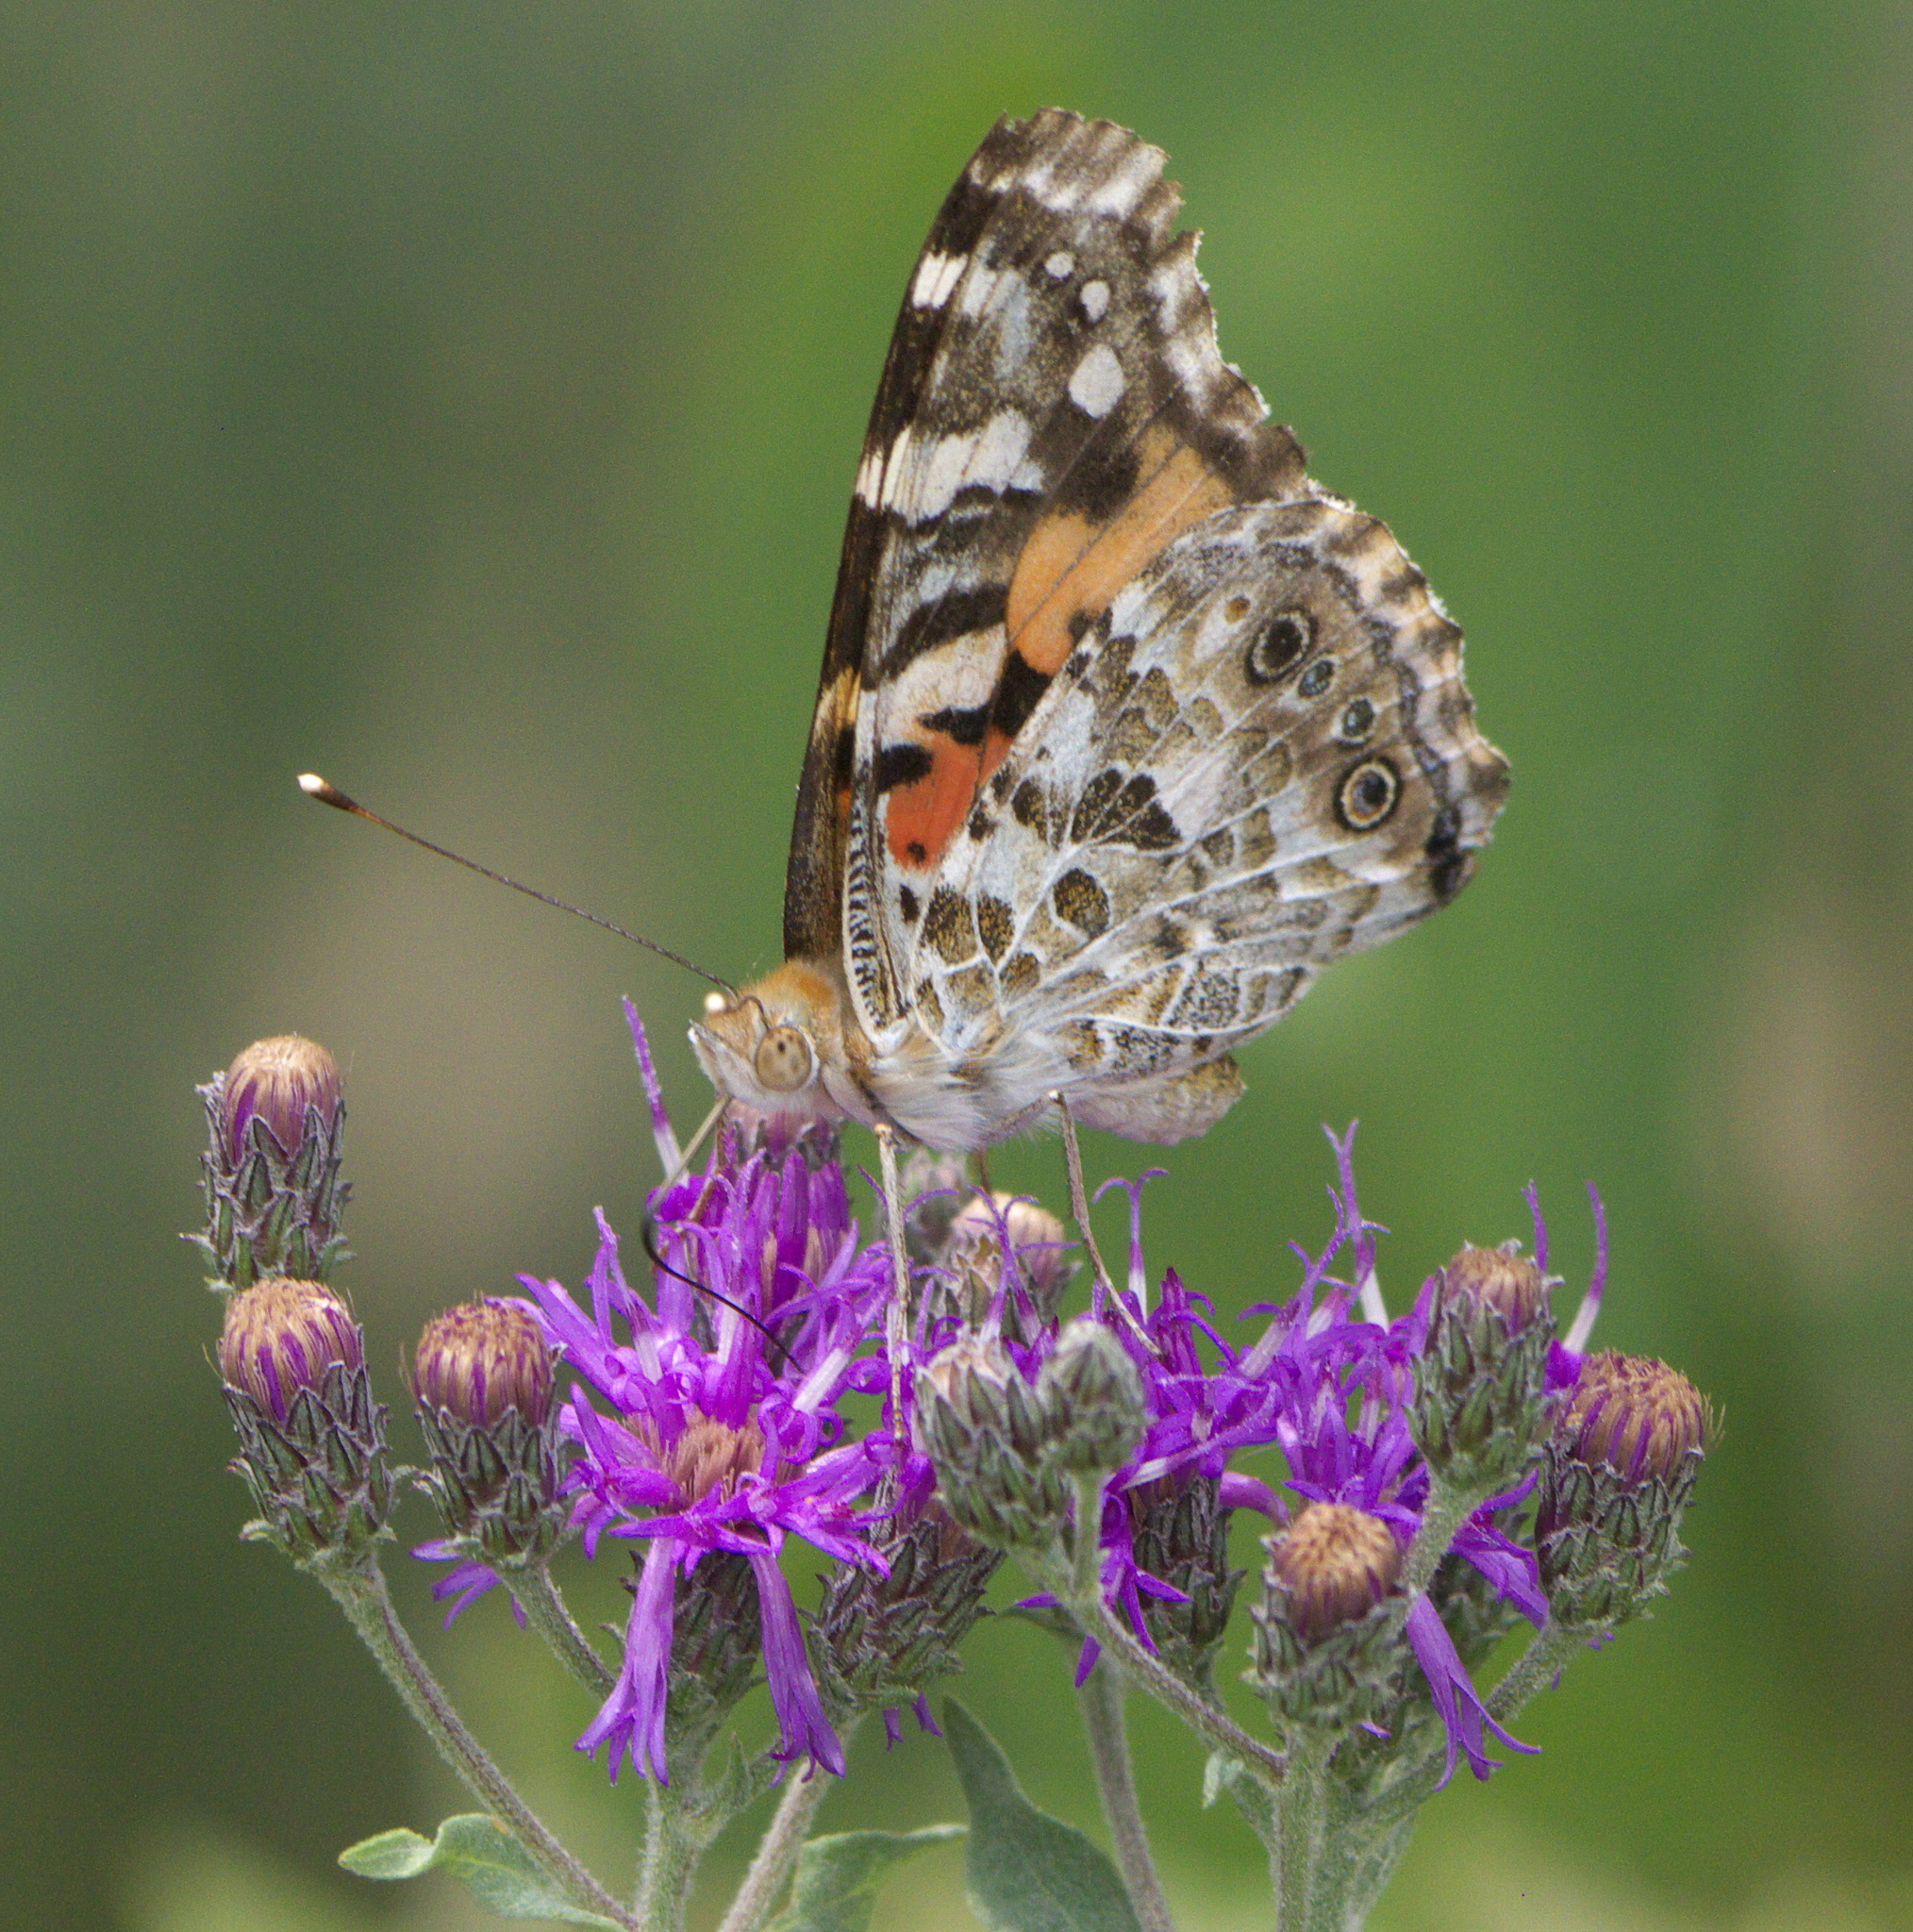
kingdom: Animalia
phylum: Arthropoda
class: Insecta
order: Lepidoptera
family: Nymphalidae
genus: Vanessa
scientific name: Vanessa cardui
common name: Painted lady
